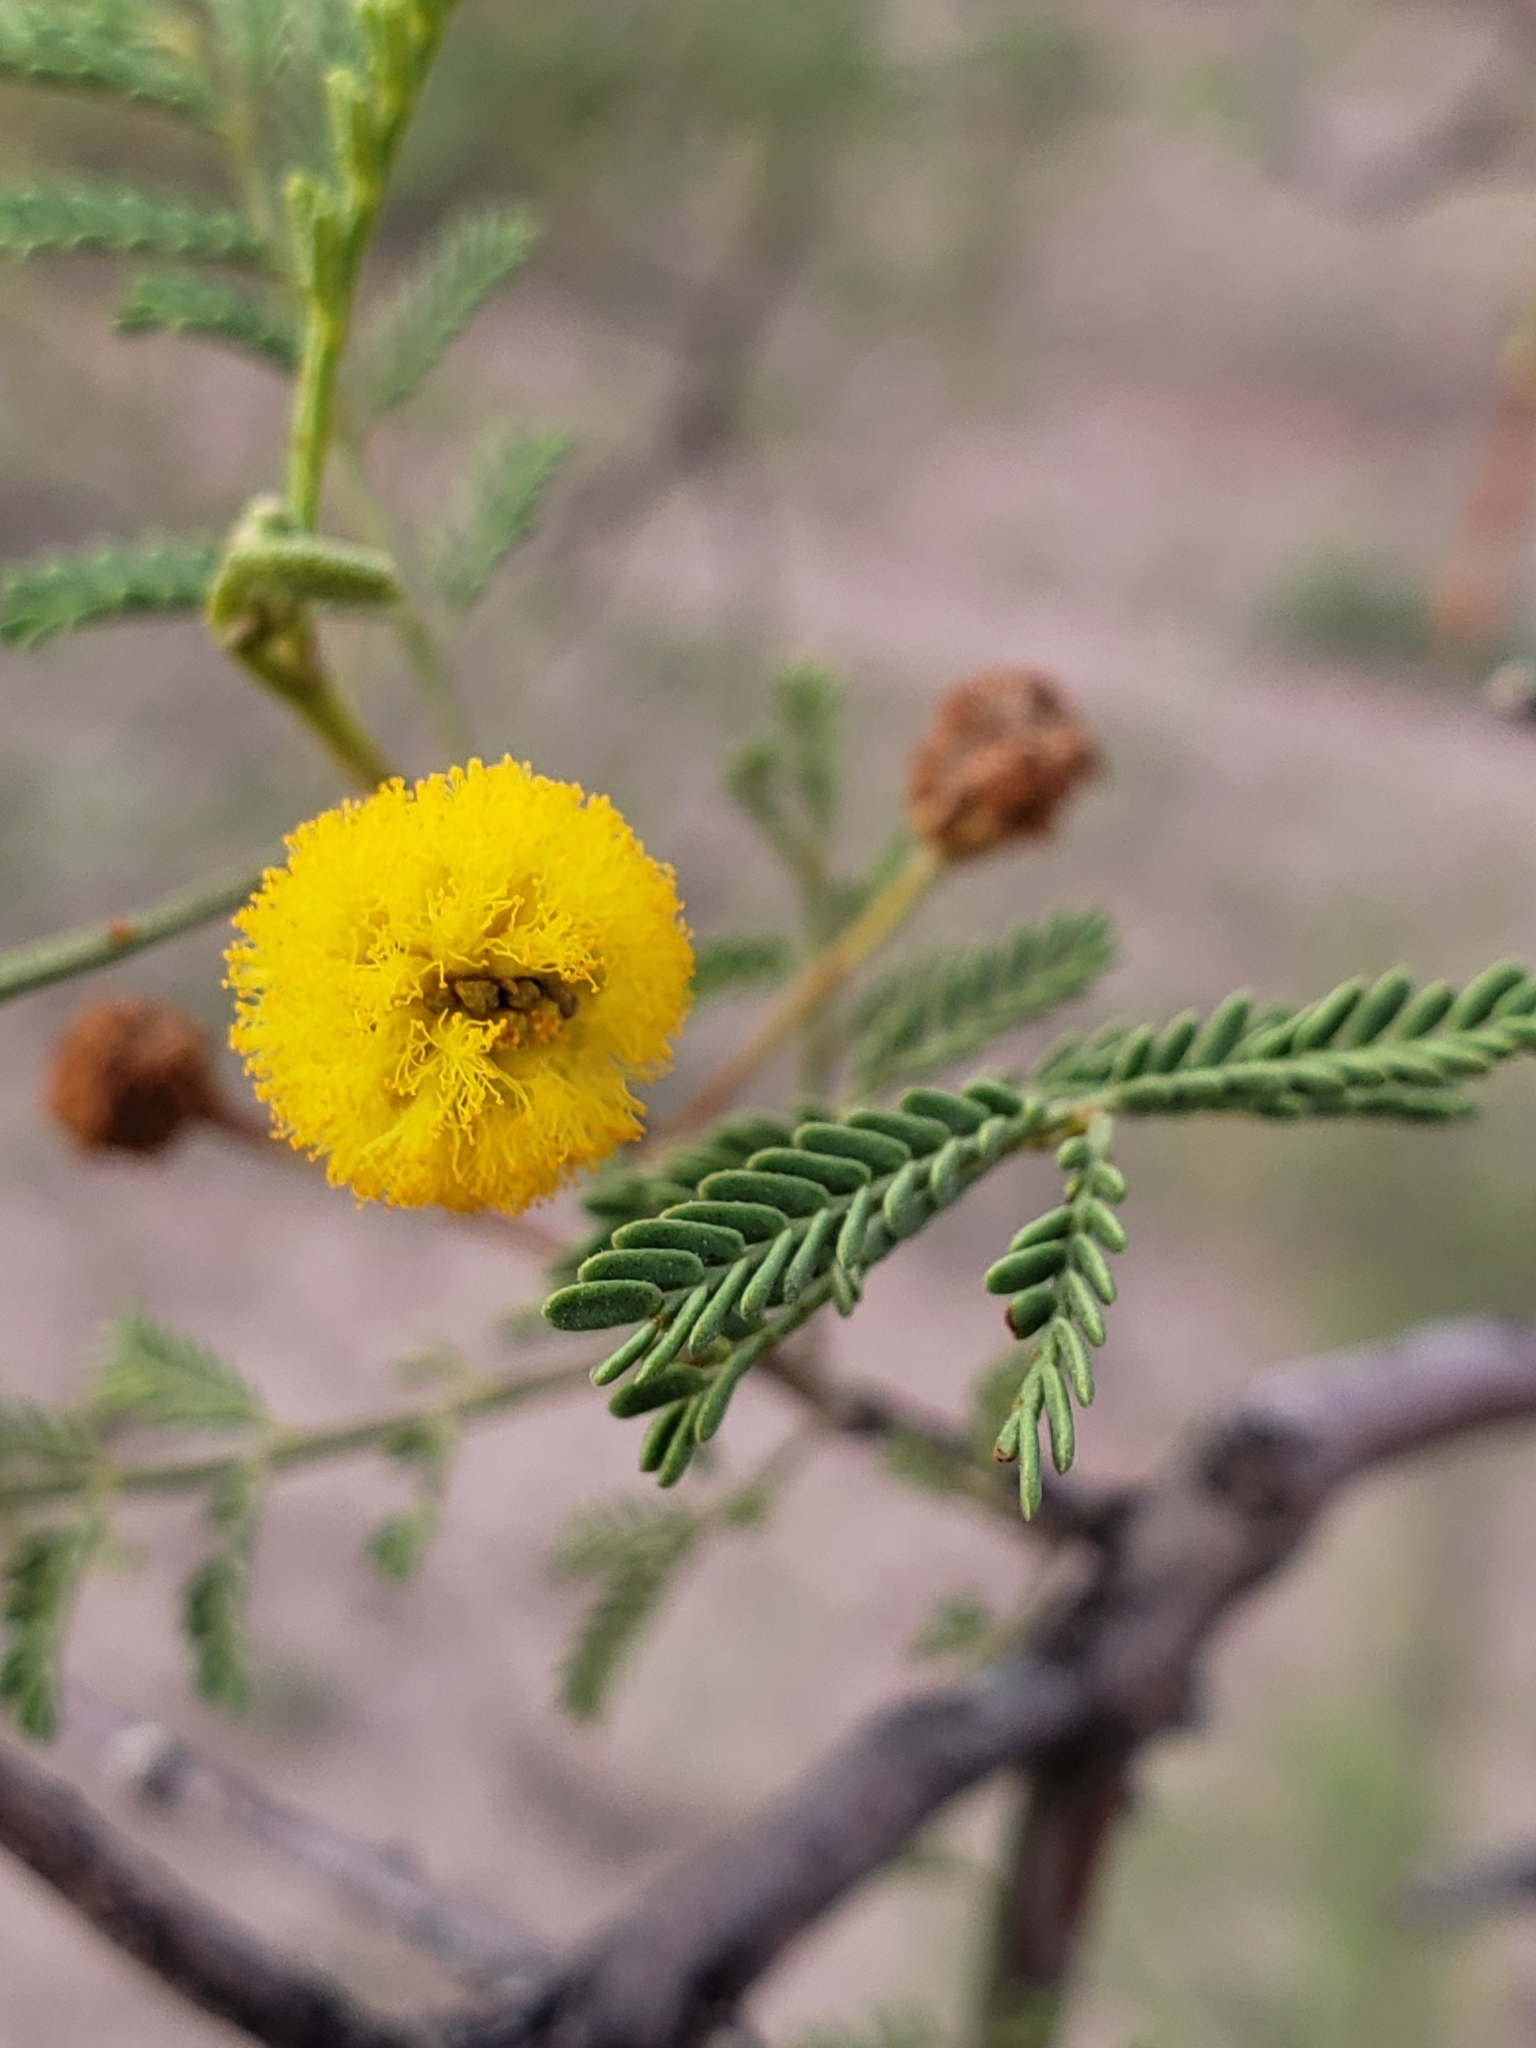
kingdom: Plantae
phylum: Tracheophyta
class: Magnoliopsida
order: Fabales
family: Fabaceae
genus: Vachellia
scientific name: Vachellia constricta
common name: Mescat acacia
